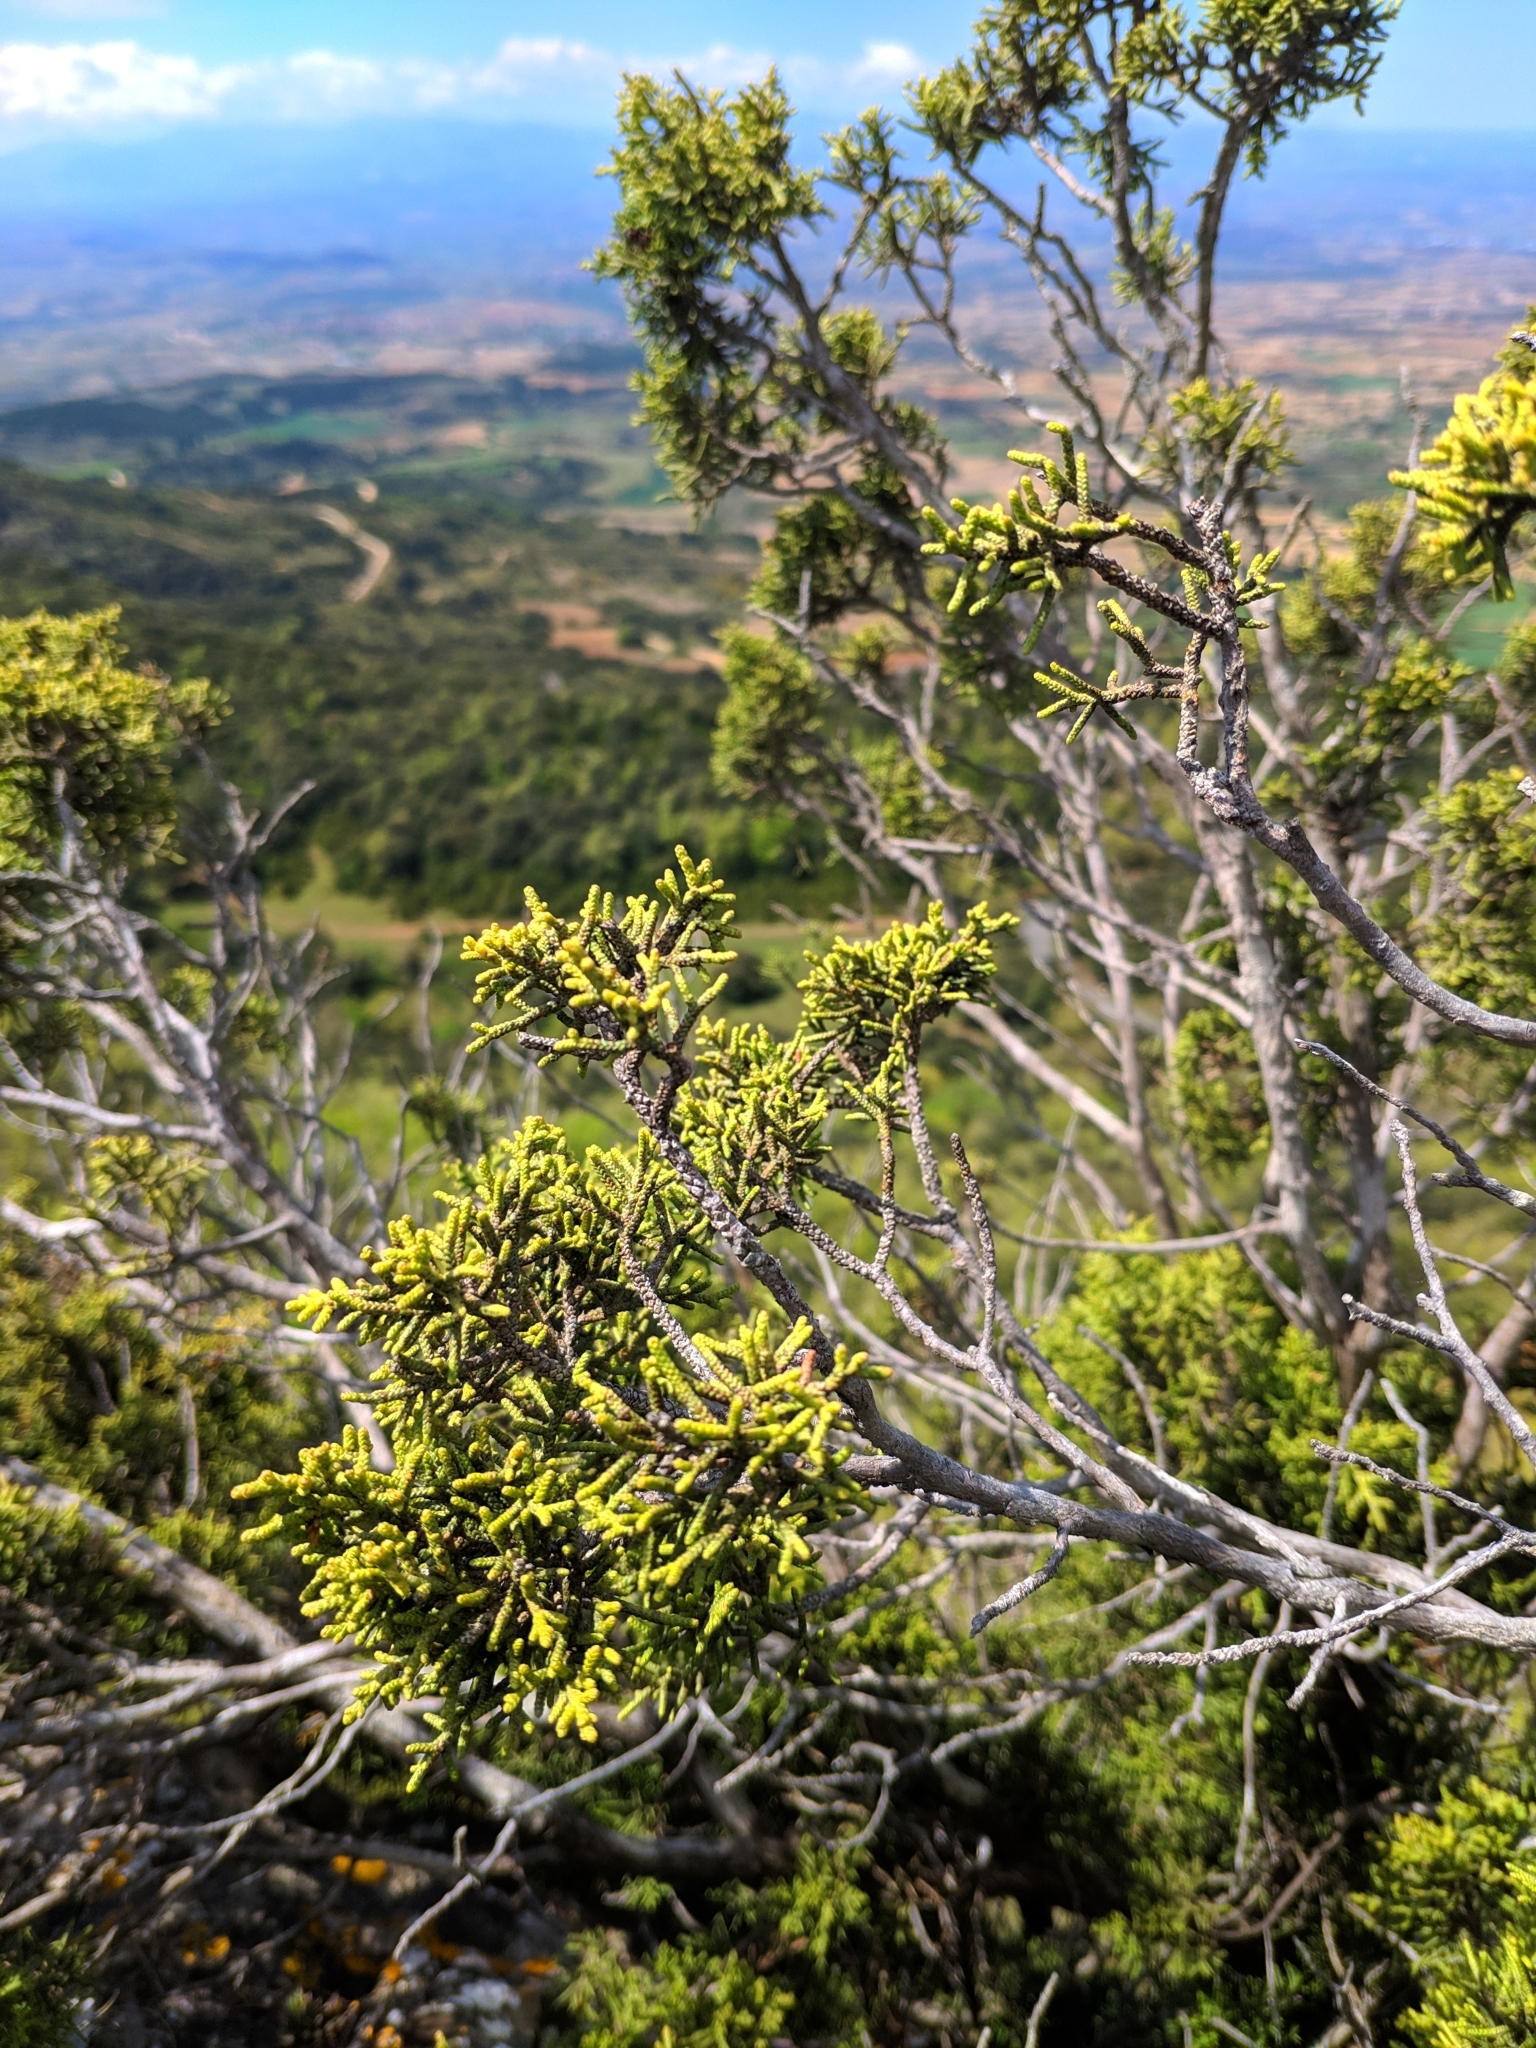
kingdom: Plantae
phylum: Tracheophyta
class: Pinopsida
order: Pinales
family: Cupressaceae
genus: Juniperus
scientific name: Juniperus phoenicea
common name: Phoenician juniper
